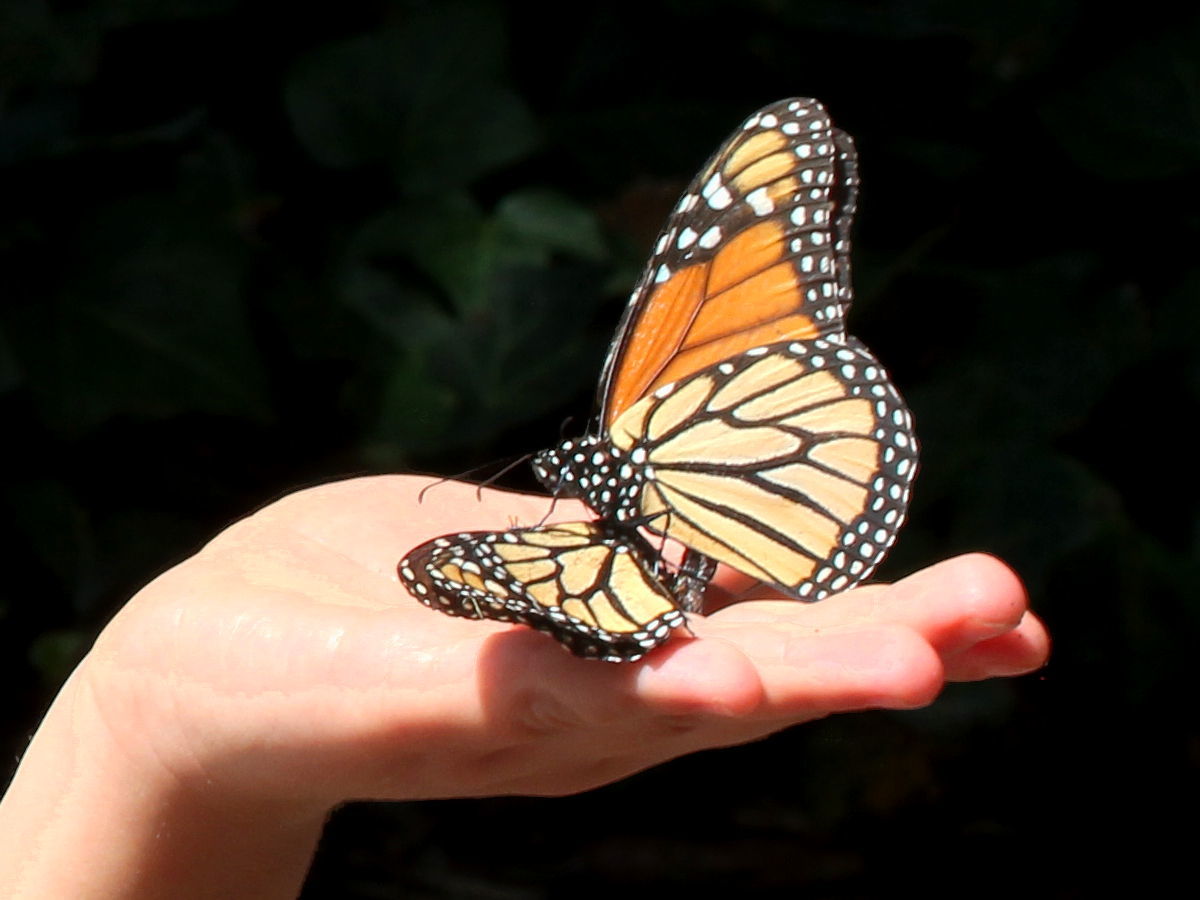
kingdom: Animalia
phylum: Arthropoda
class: Insecta
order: Lepidoptera
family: Nymphalidae
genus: Danaus
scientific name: Danaus plexippus
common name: Monarch
